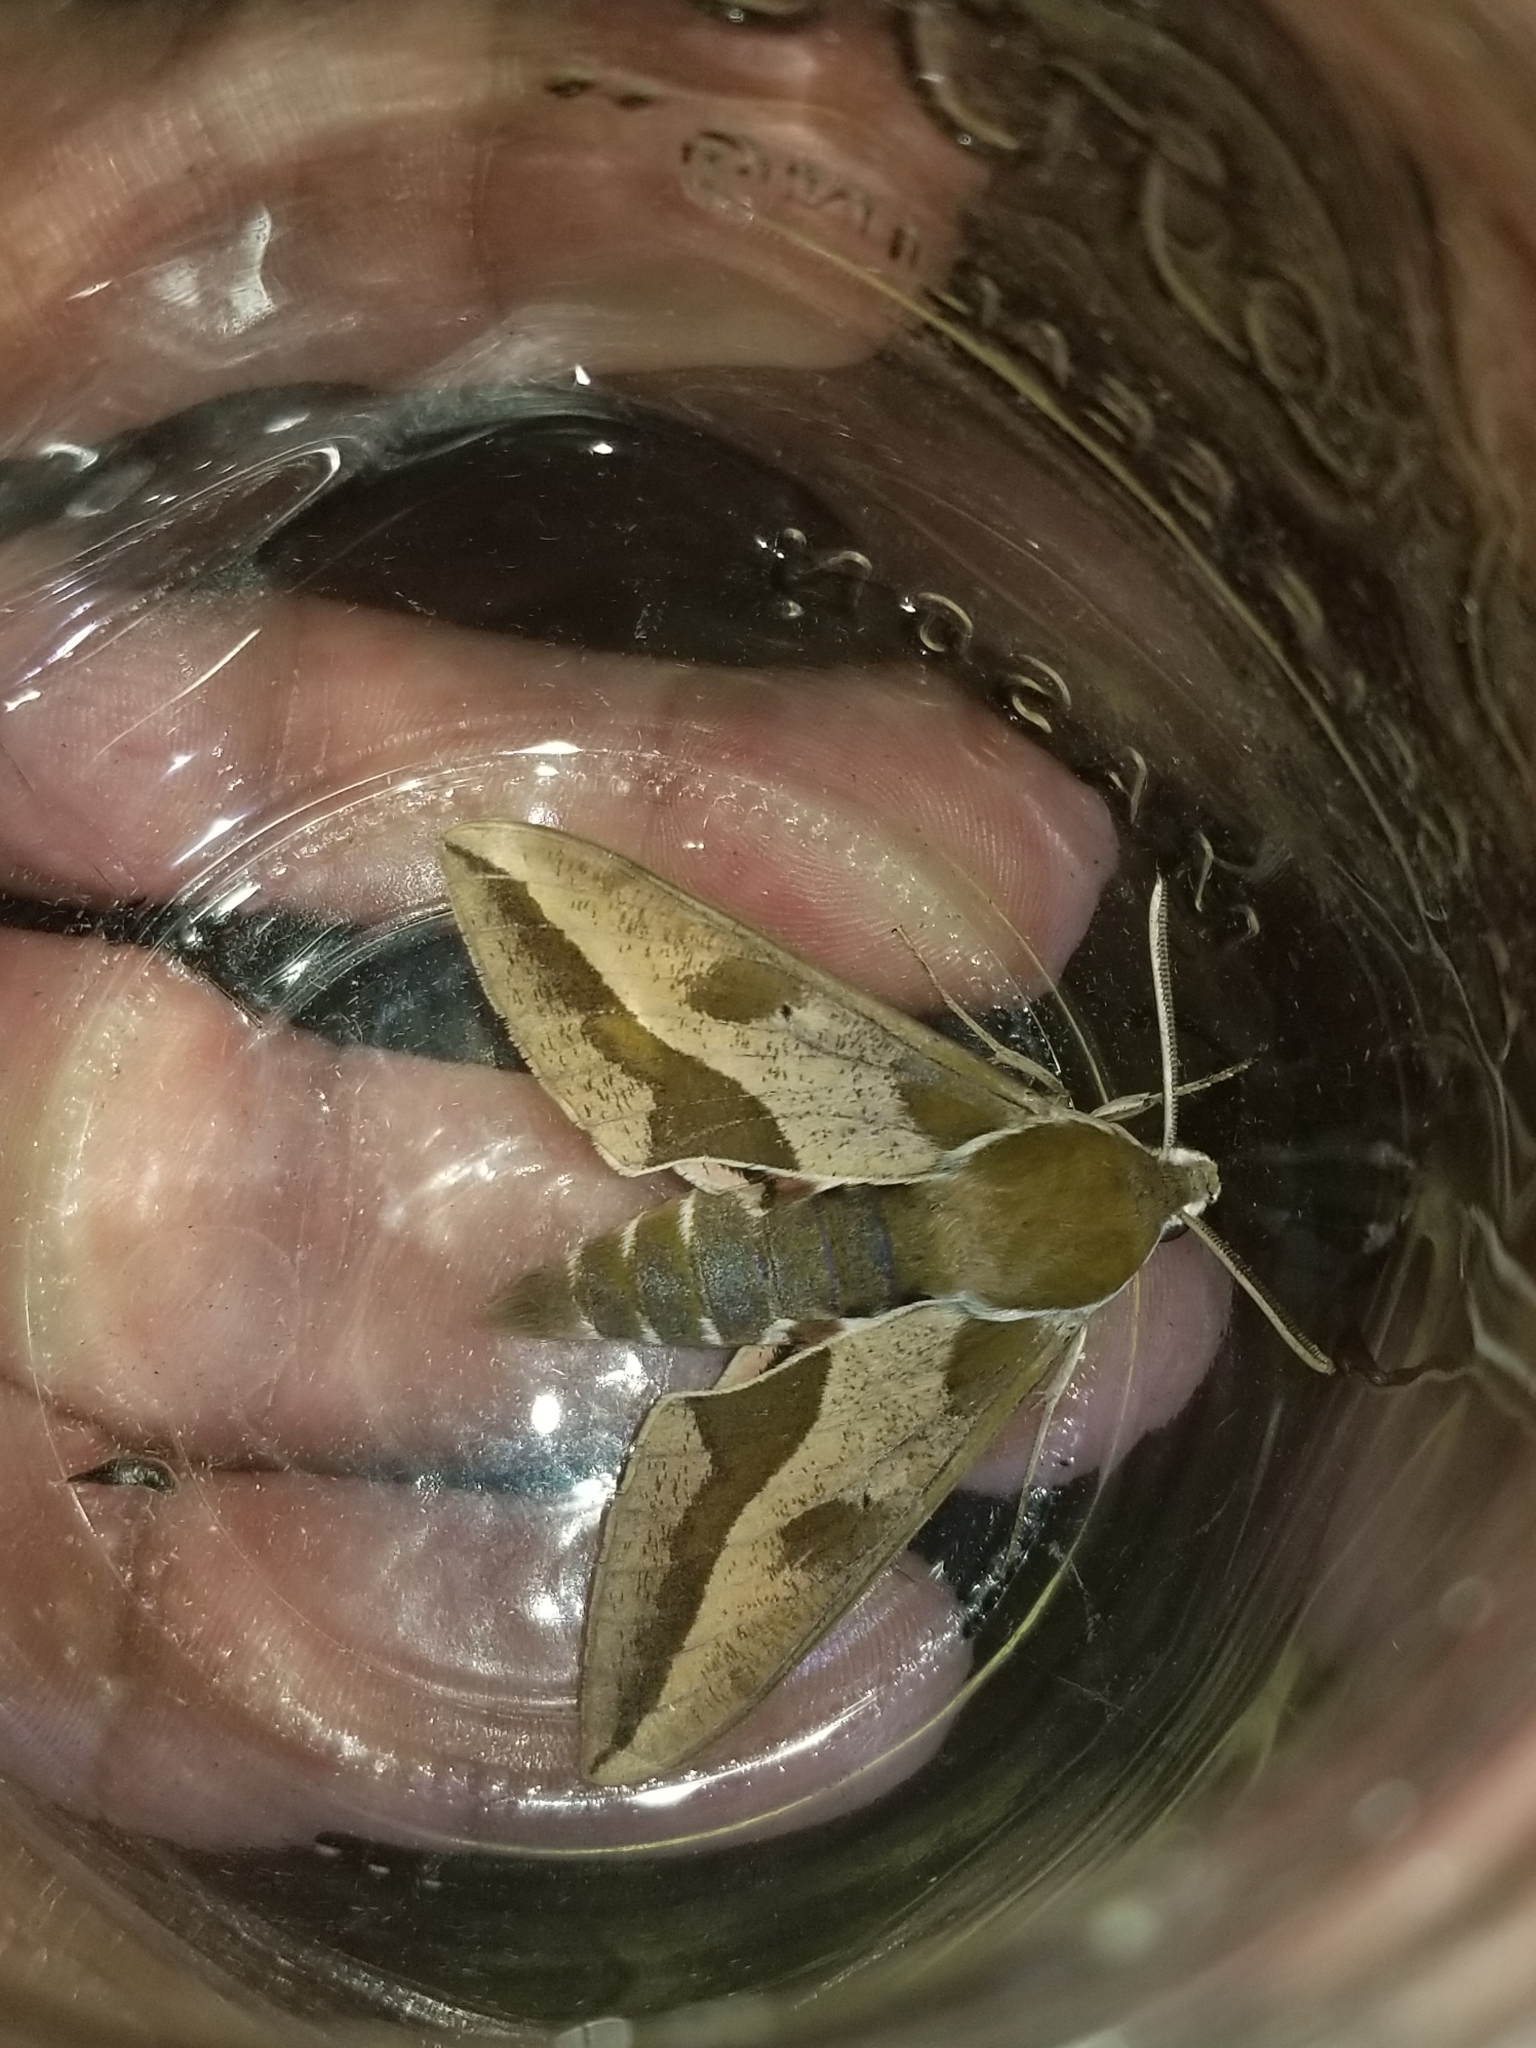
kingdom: Animalia
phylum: Arthropoda
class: Insecta
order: Lepidoptera
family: Sphingidae
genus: Hyles
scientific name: Hyles euphorbiae
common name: Spurge hawk-moth
